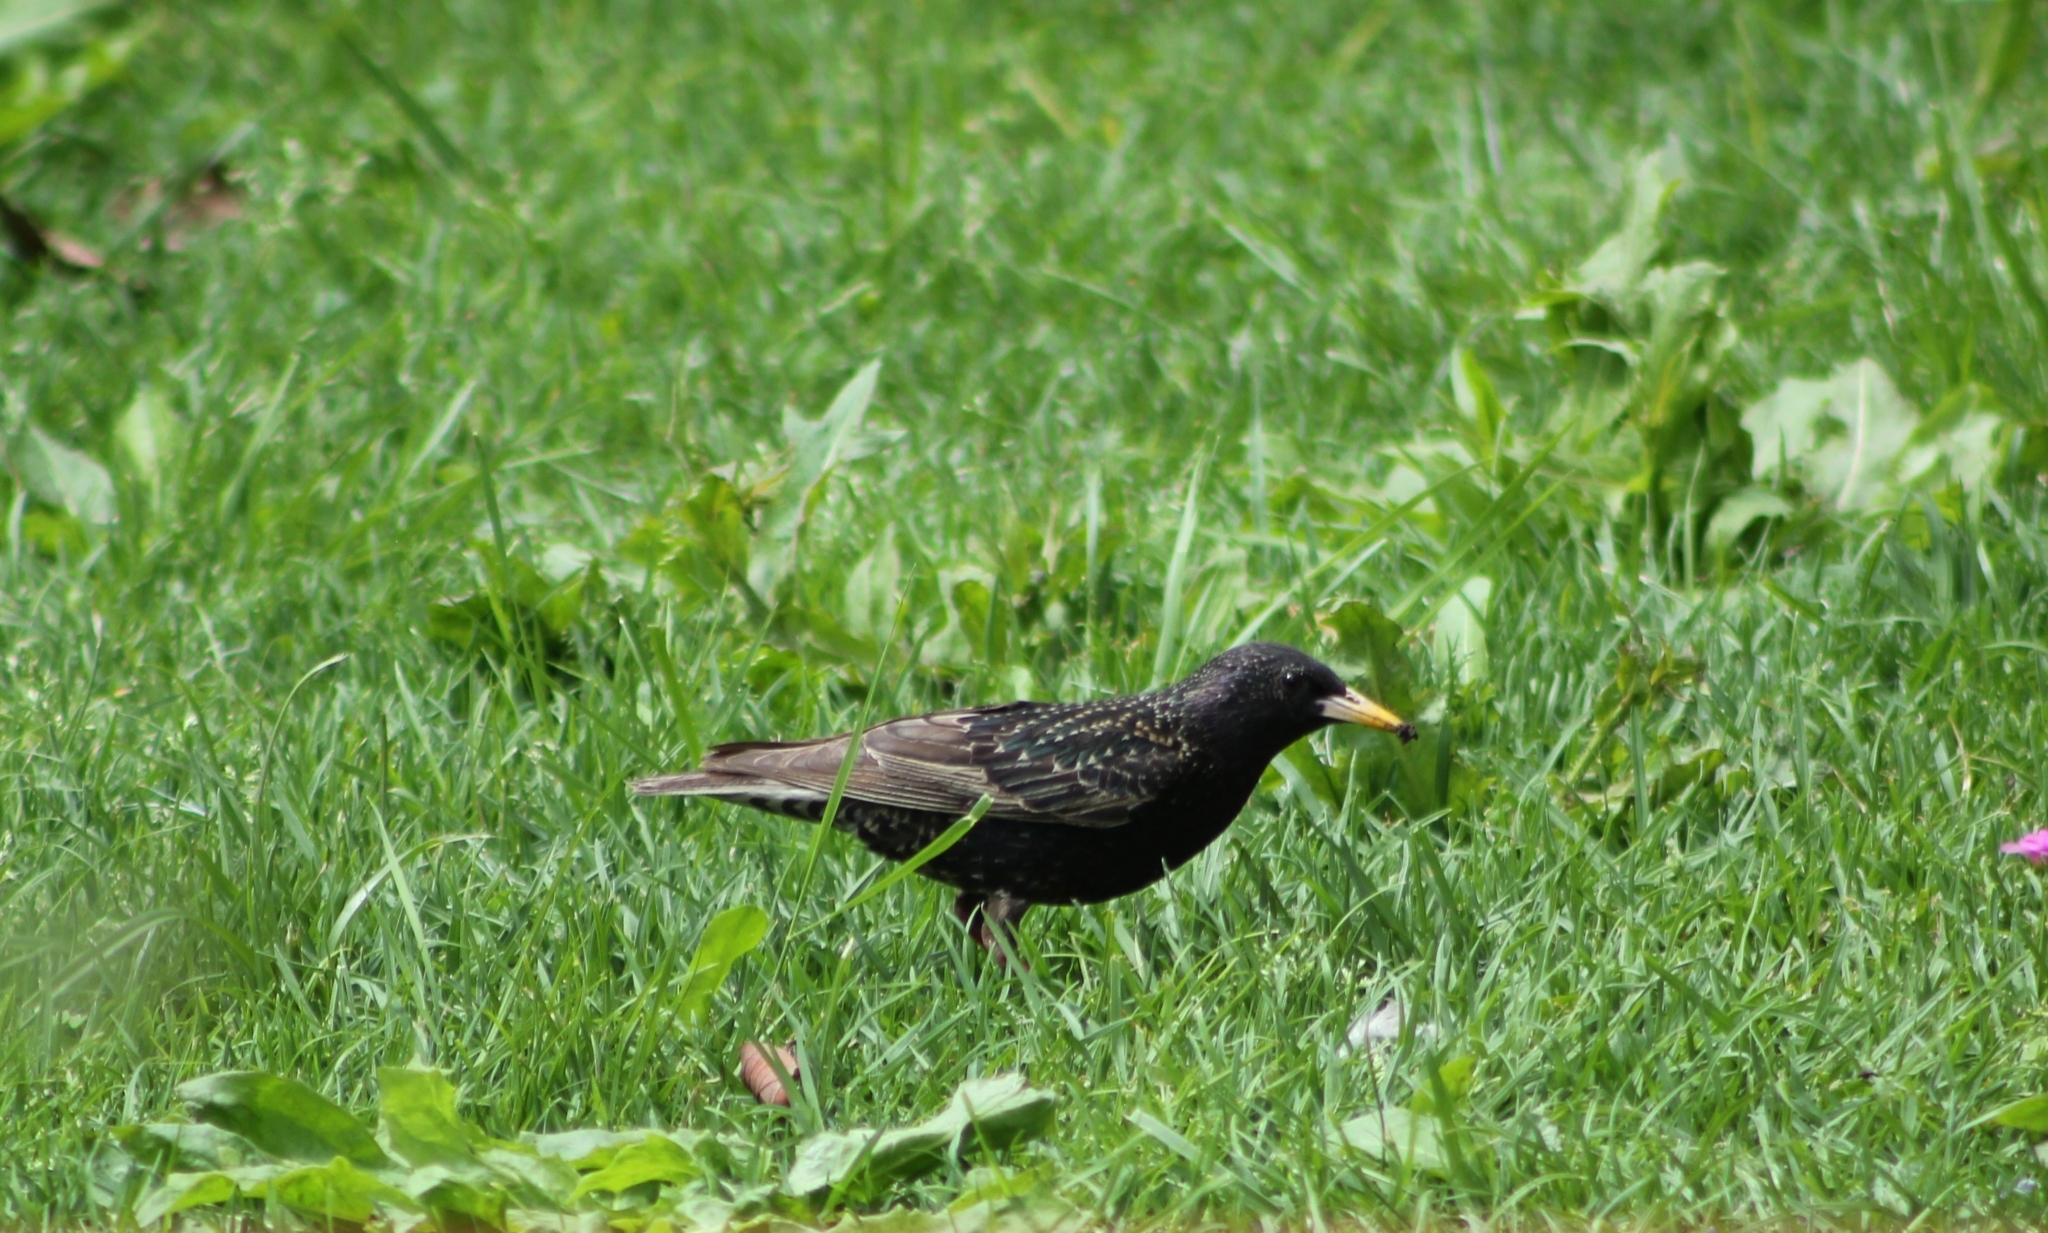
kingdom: Animalia
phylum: Chordata
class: Aves
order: Passeriformes
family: Sturnidae
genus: Sturnus
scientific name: Sturnus vulgaris
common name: Common starling
